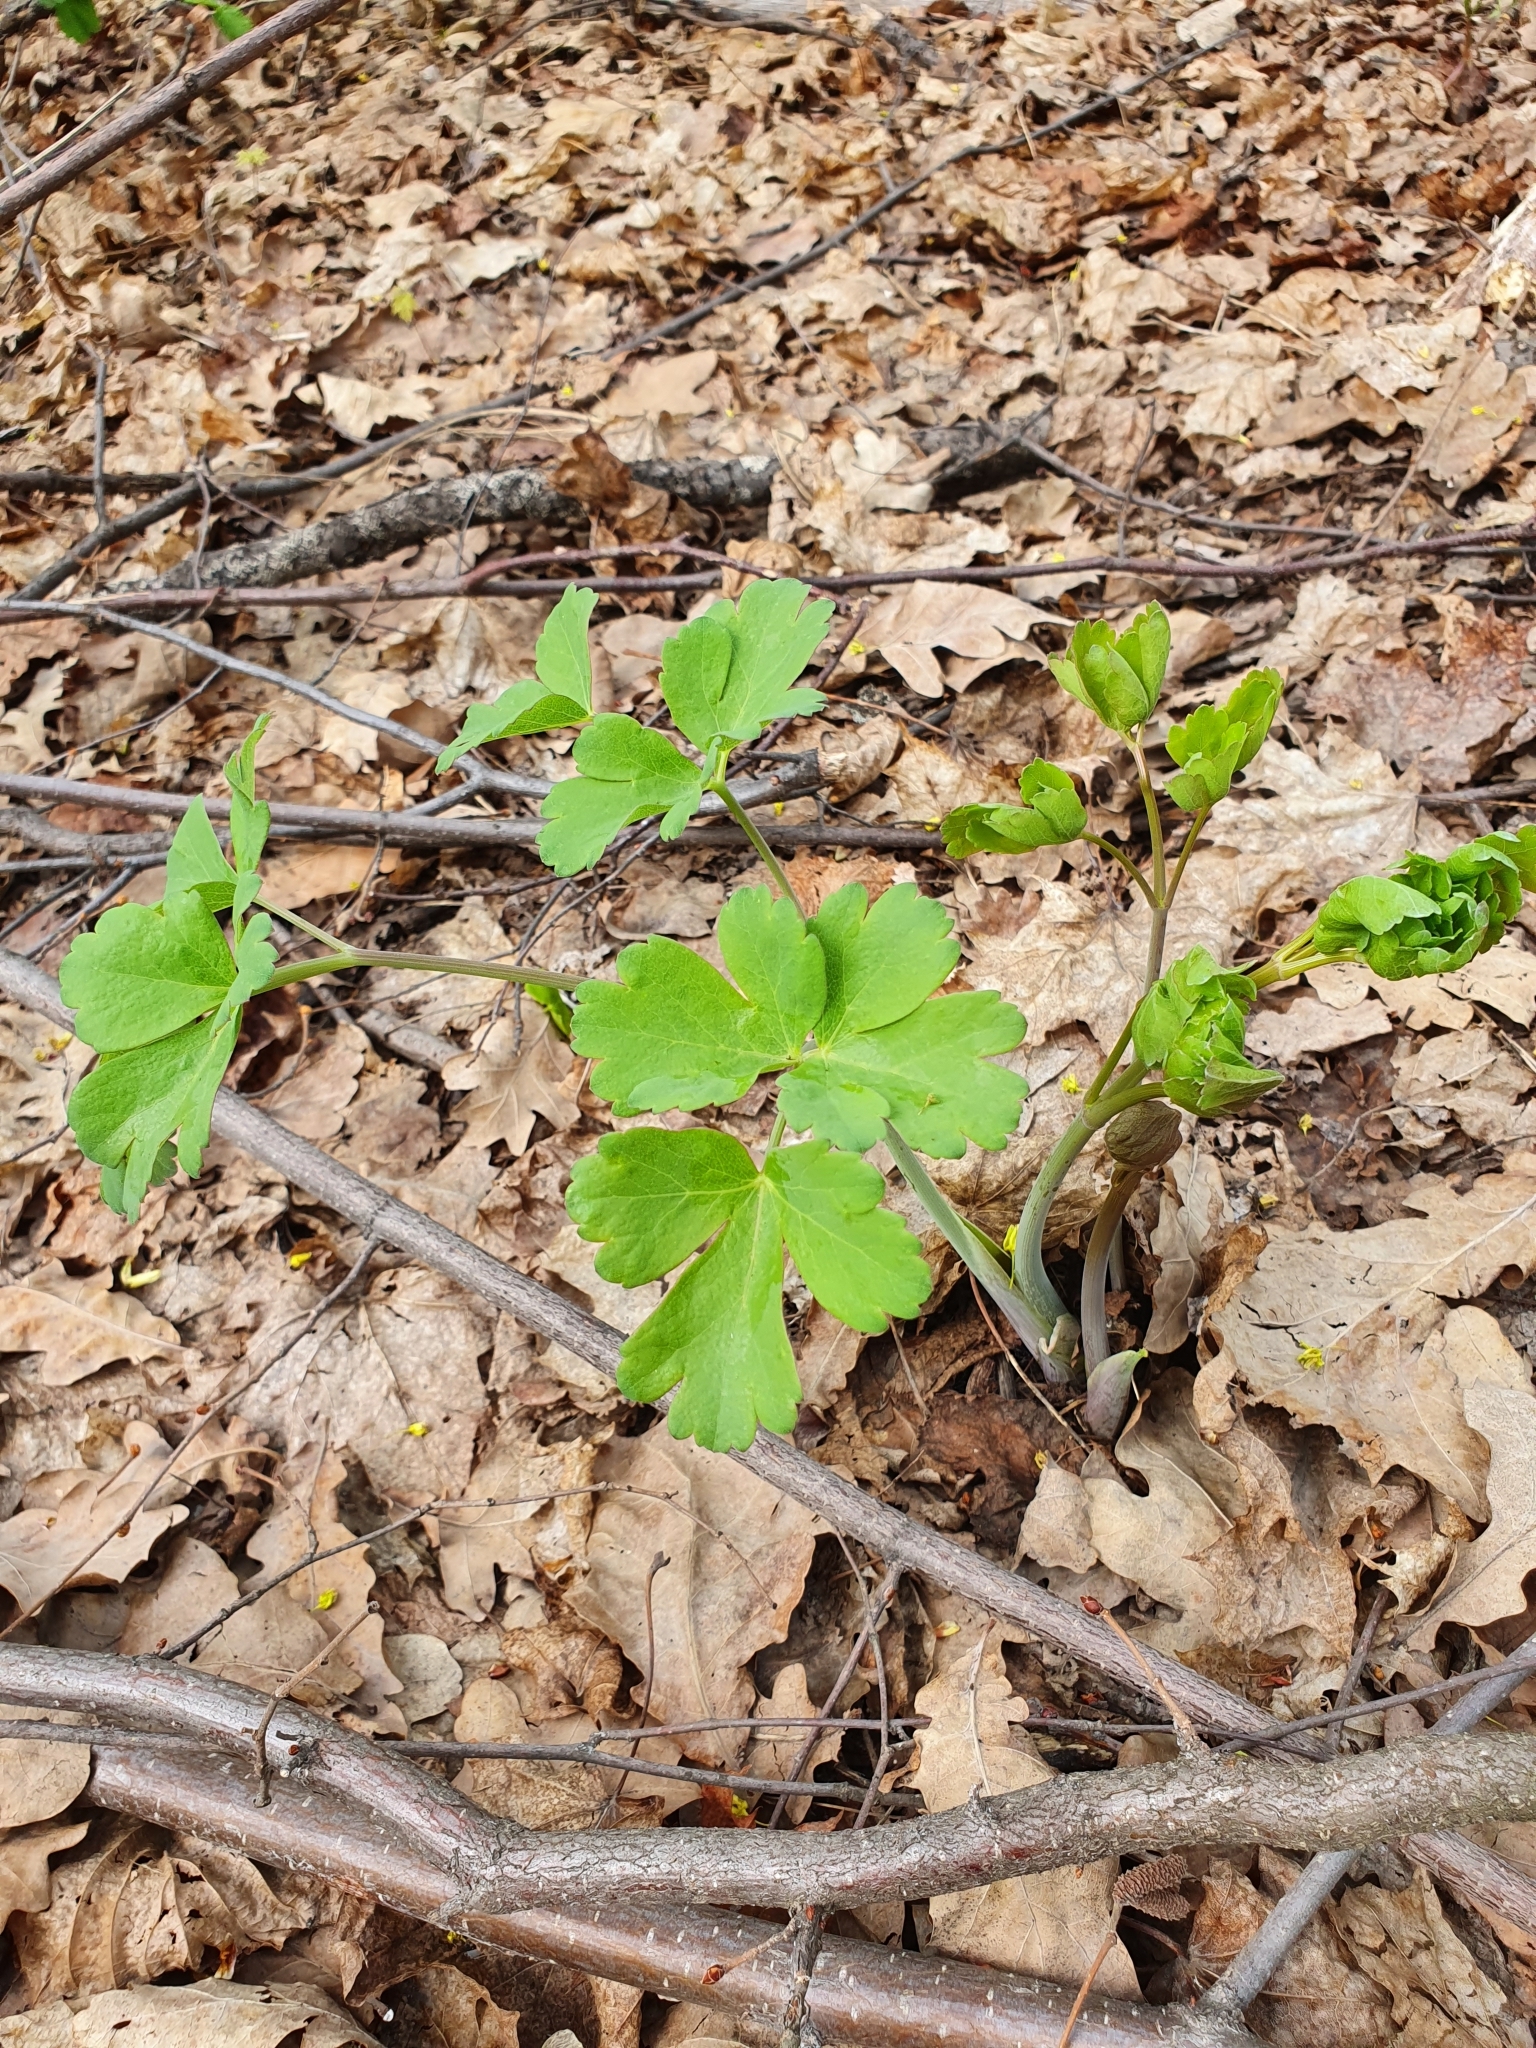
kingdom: Plantae
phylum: Tracheophyta
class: Magnoliopsida
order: Apiales
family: Apiaceae
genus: Laser
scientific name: Laser trilobum
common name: Laser
